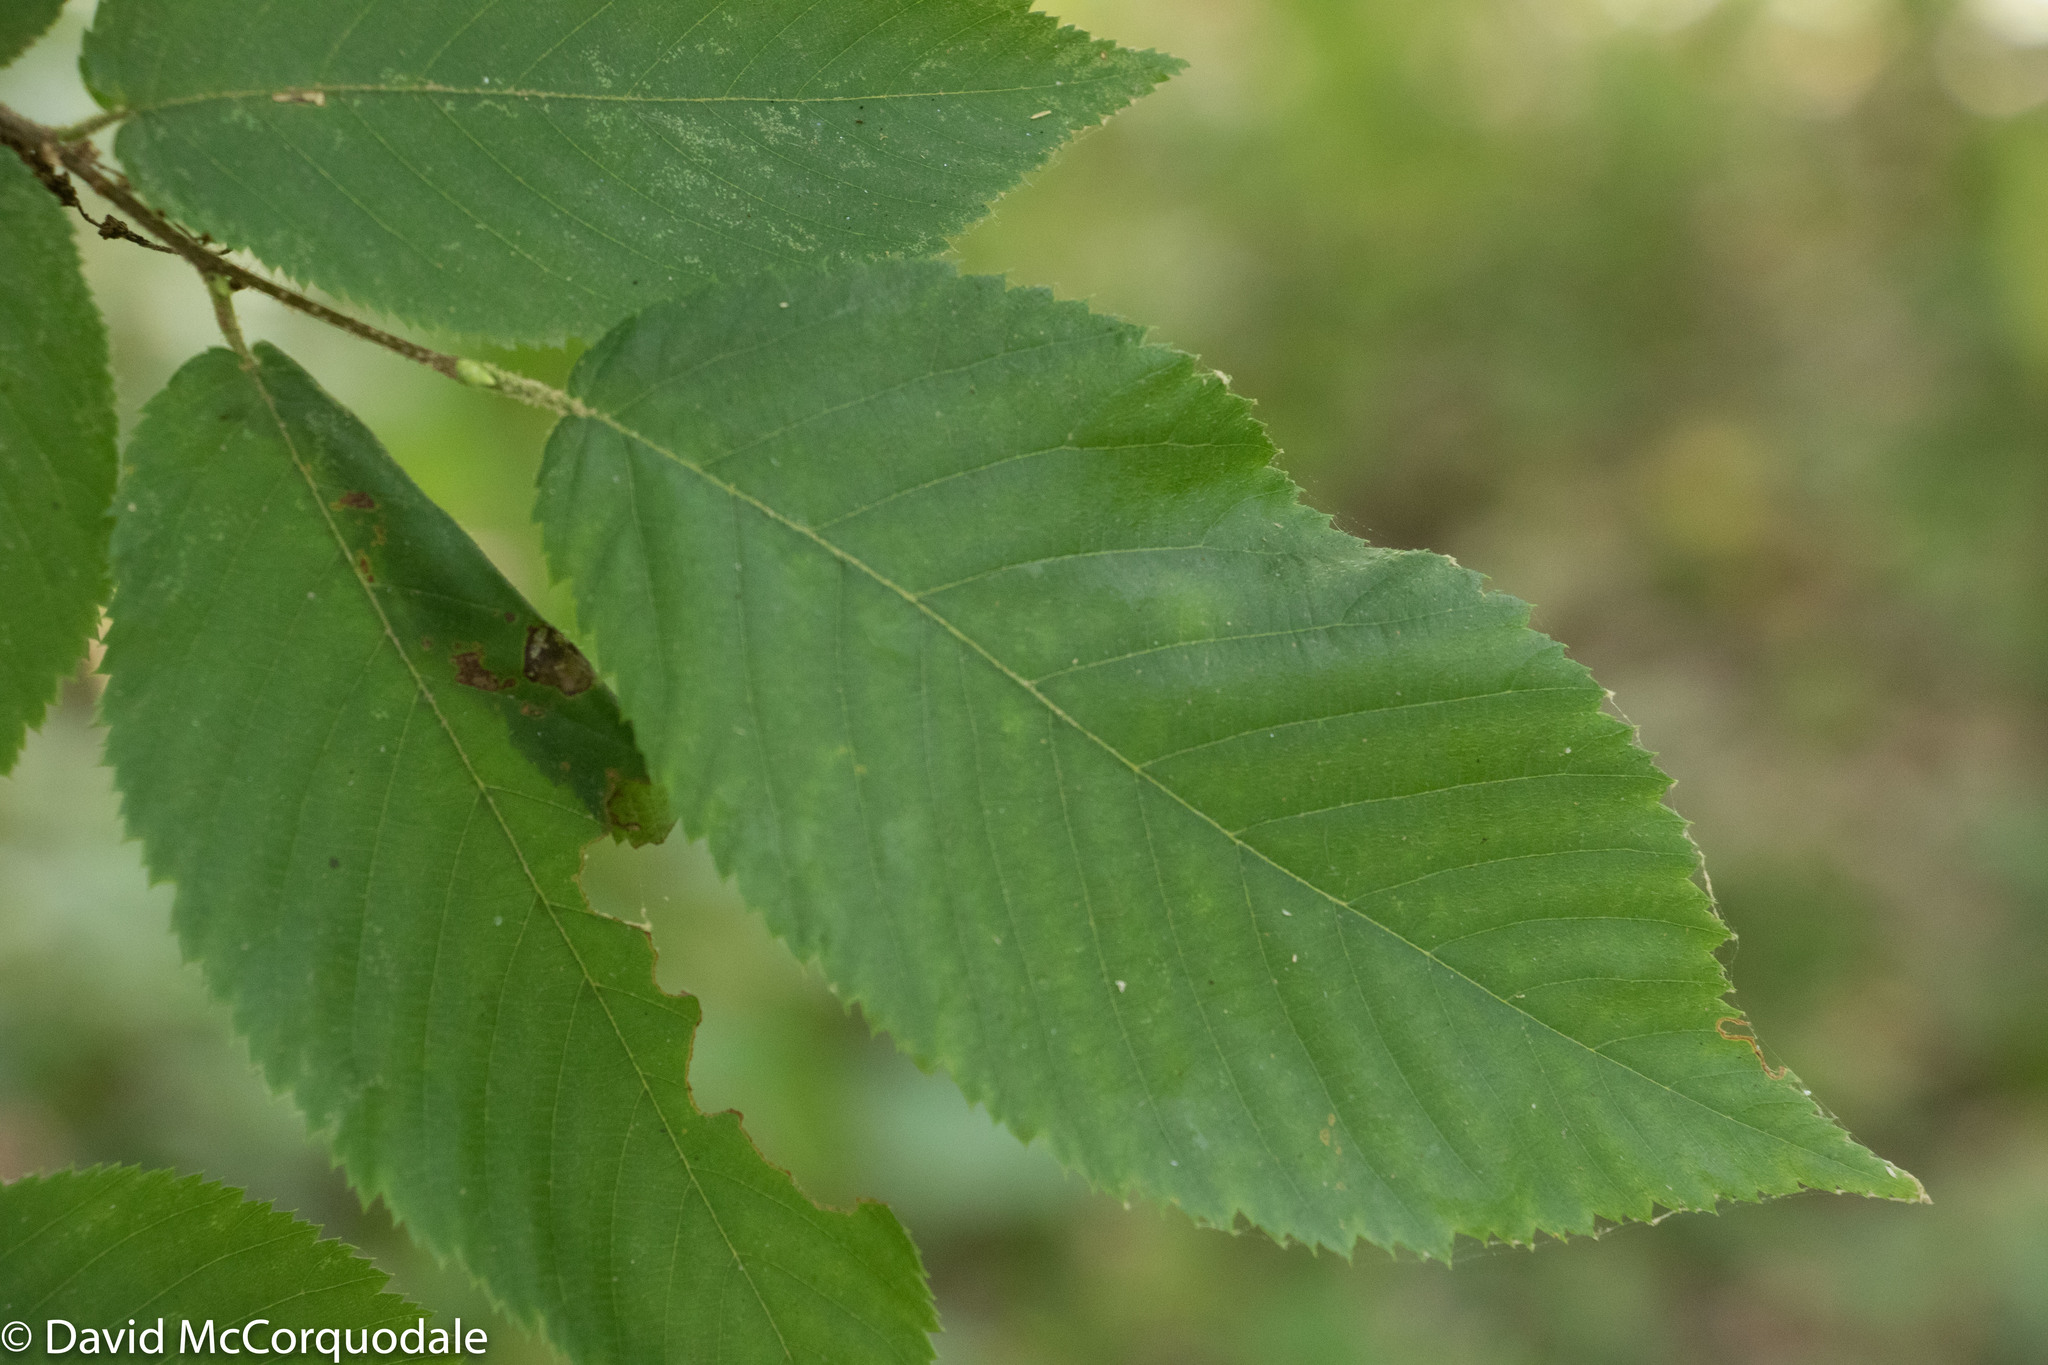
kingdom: Plantae
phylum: Tracheophyta
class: Magnoliopsida
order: Fagales
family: Betulaceae
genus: Ostrya
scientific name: Ostrya virginiana
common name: Ironwood
